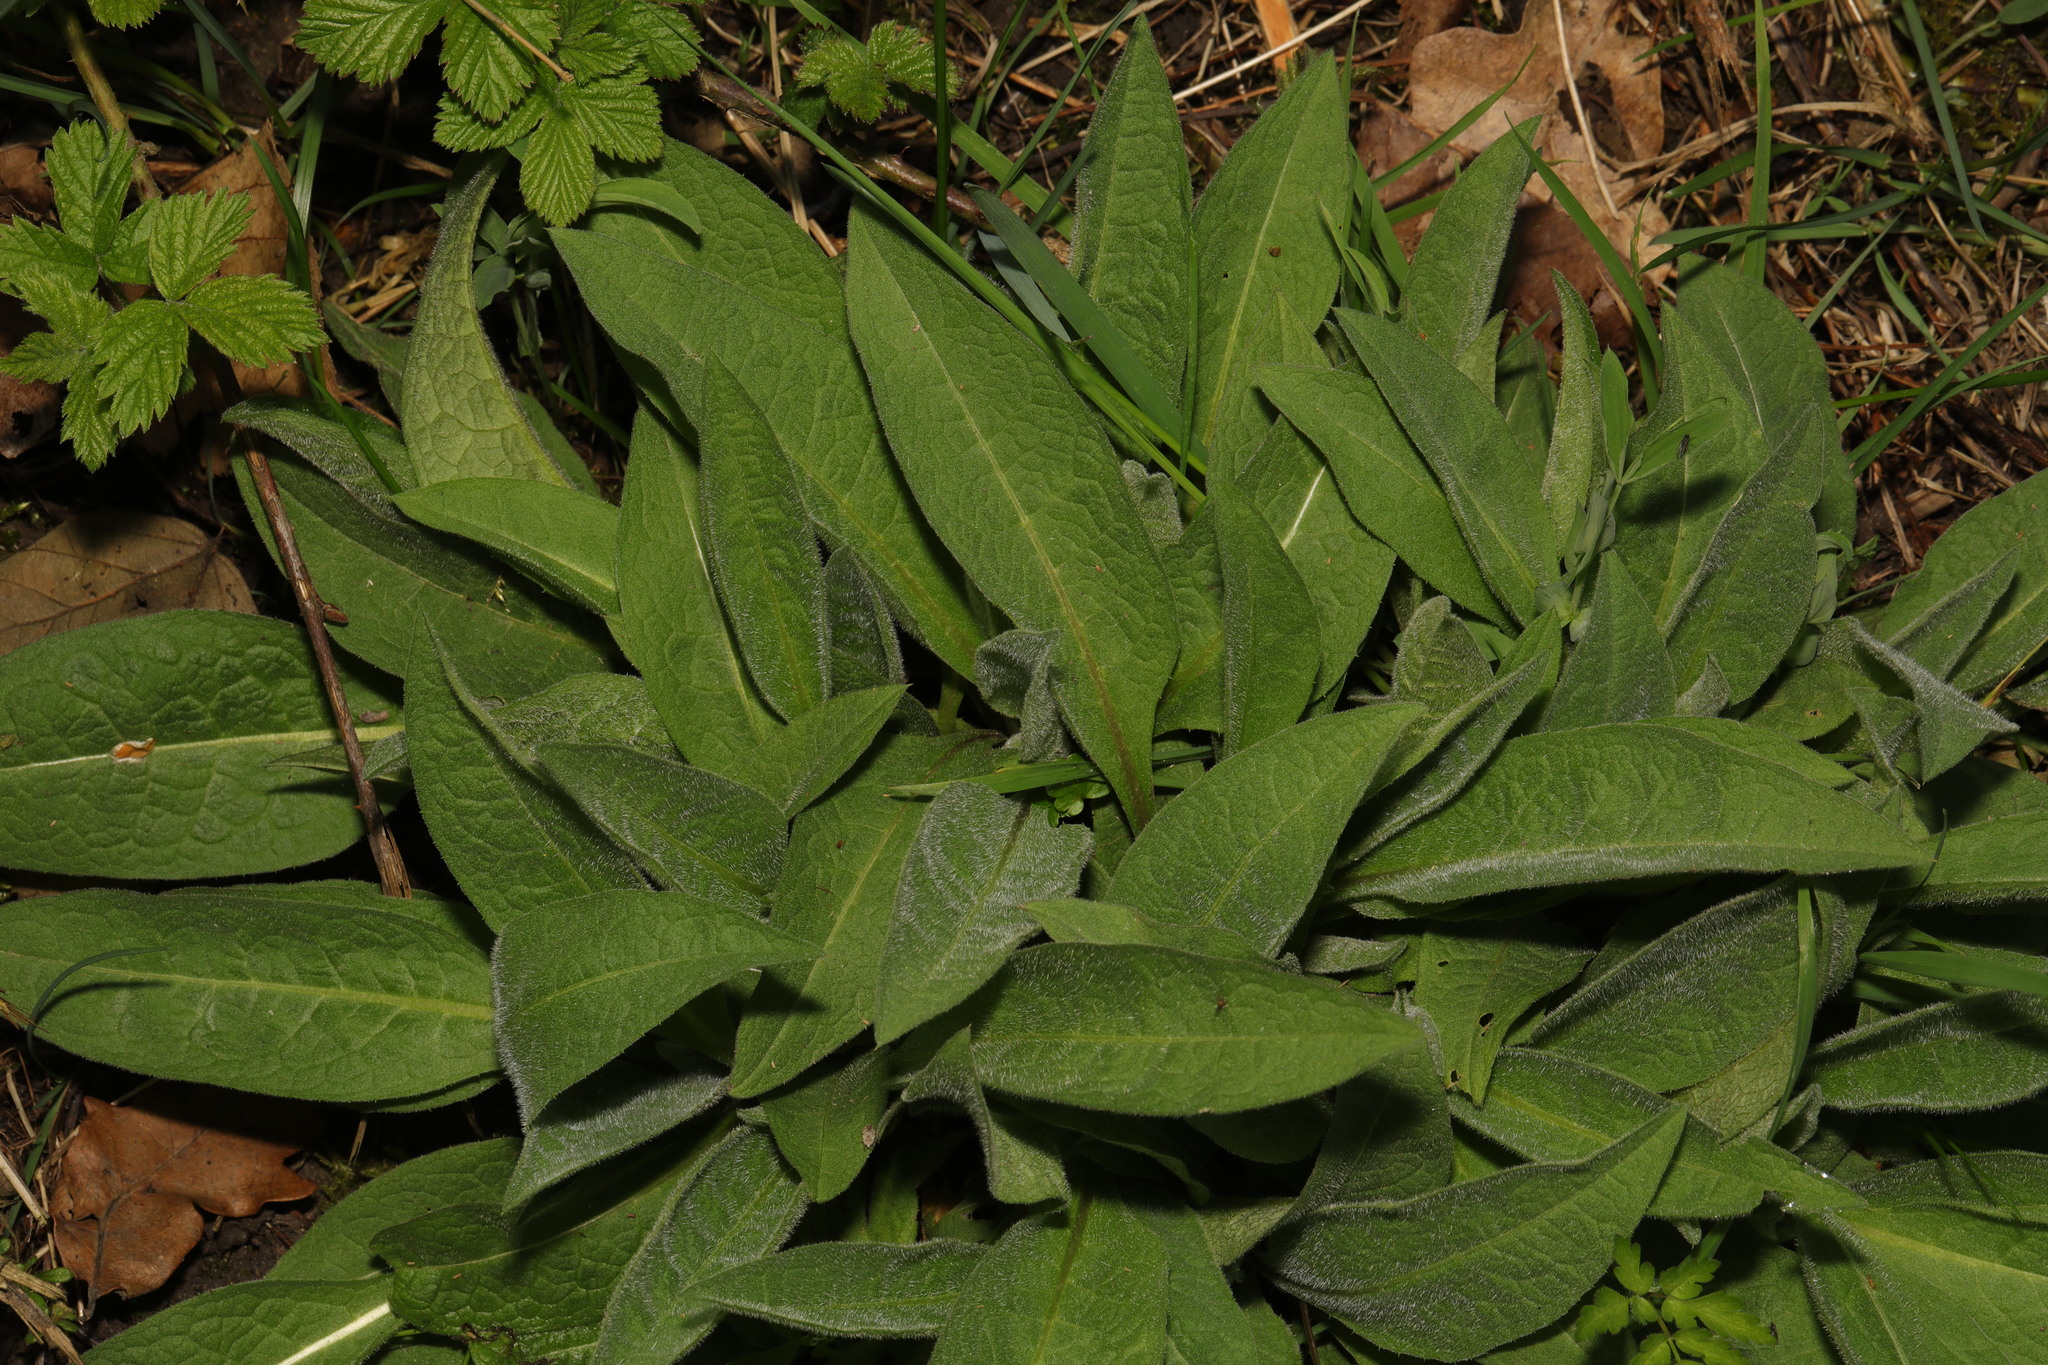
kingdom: Plantae
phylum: Tracheophyta
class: Magnoliopsida
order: Asterales
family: Asteraceae
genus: Centaurea
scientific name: Centaurea nigra
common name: Lesser knapweed
